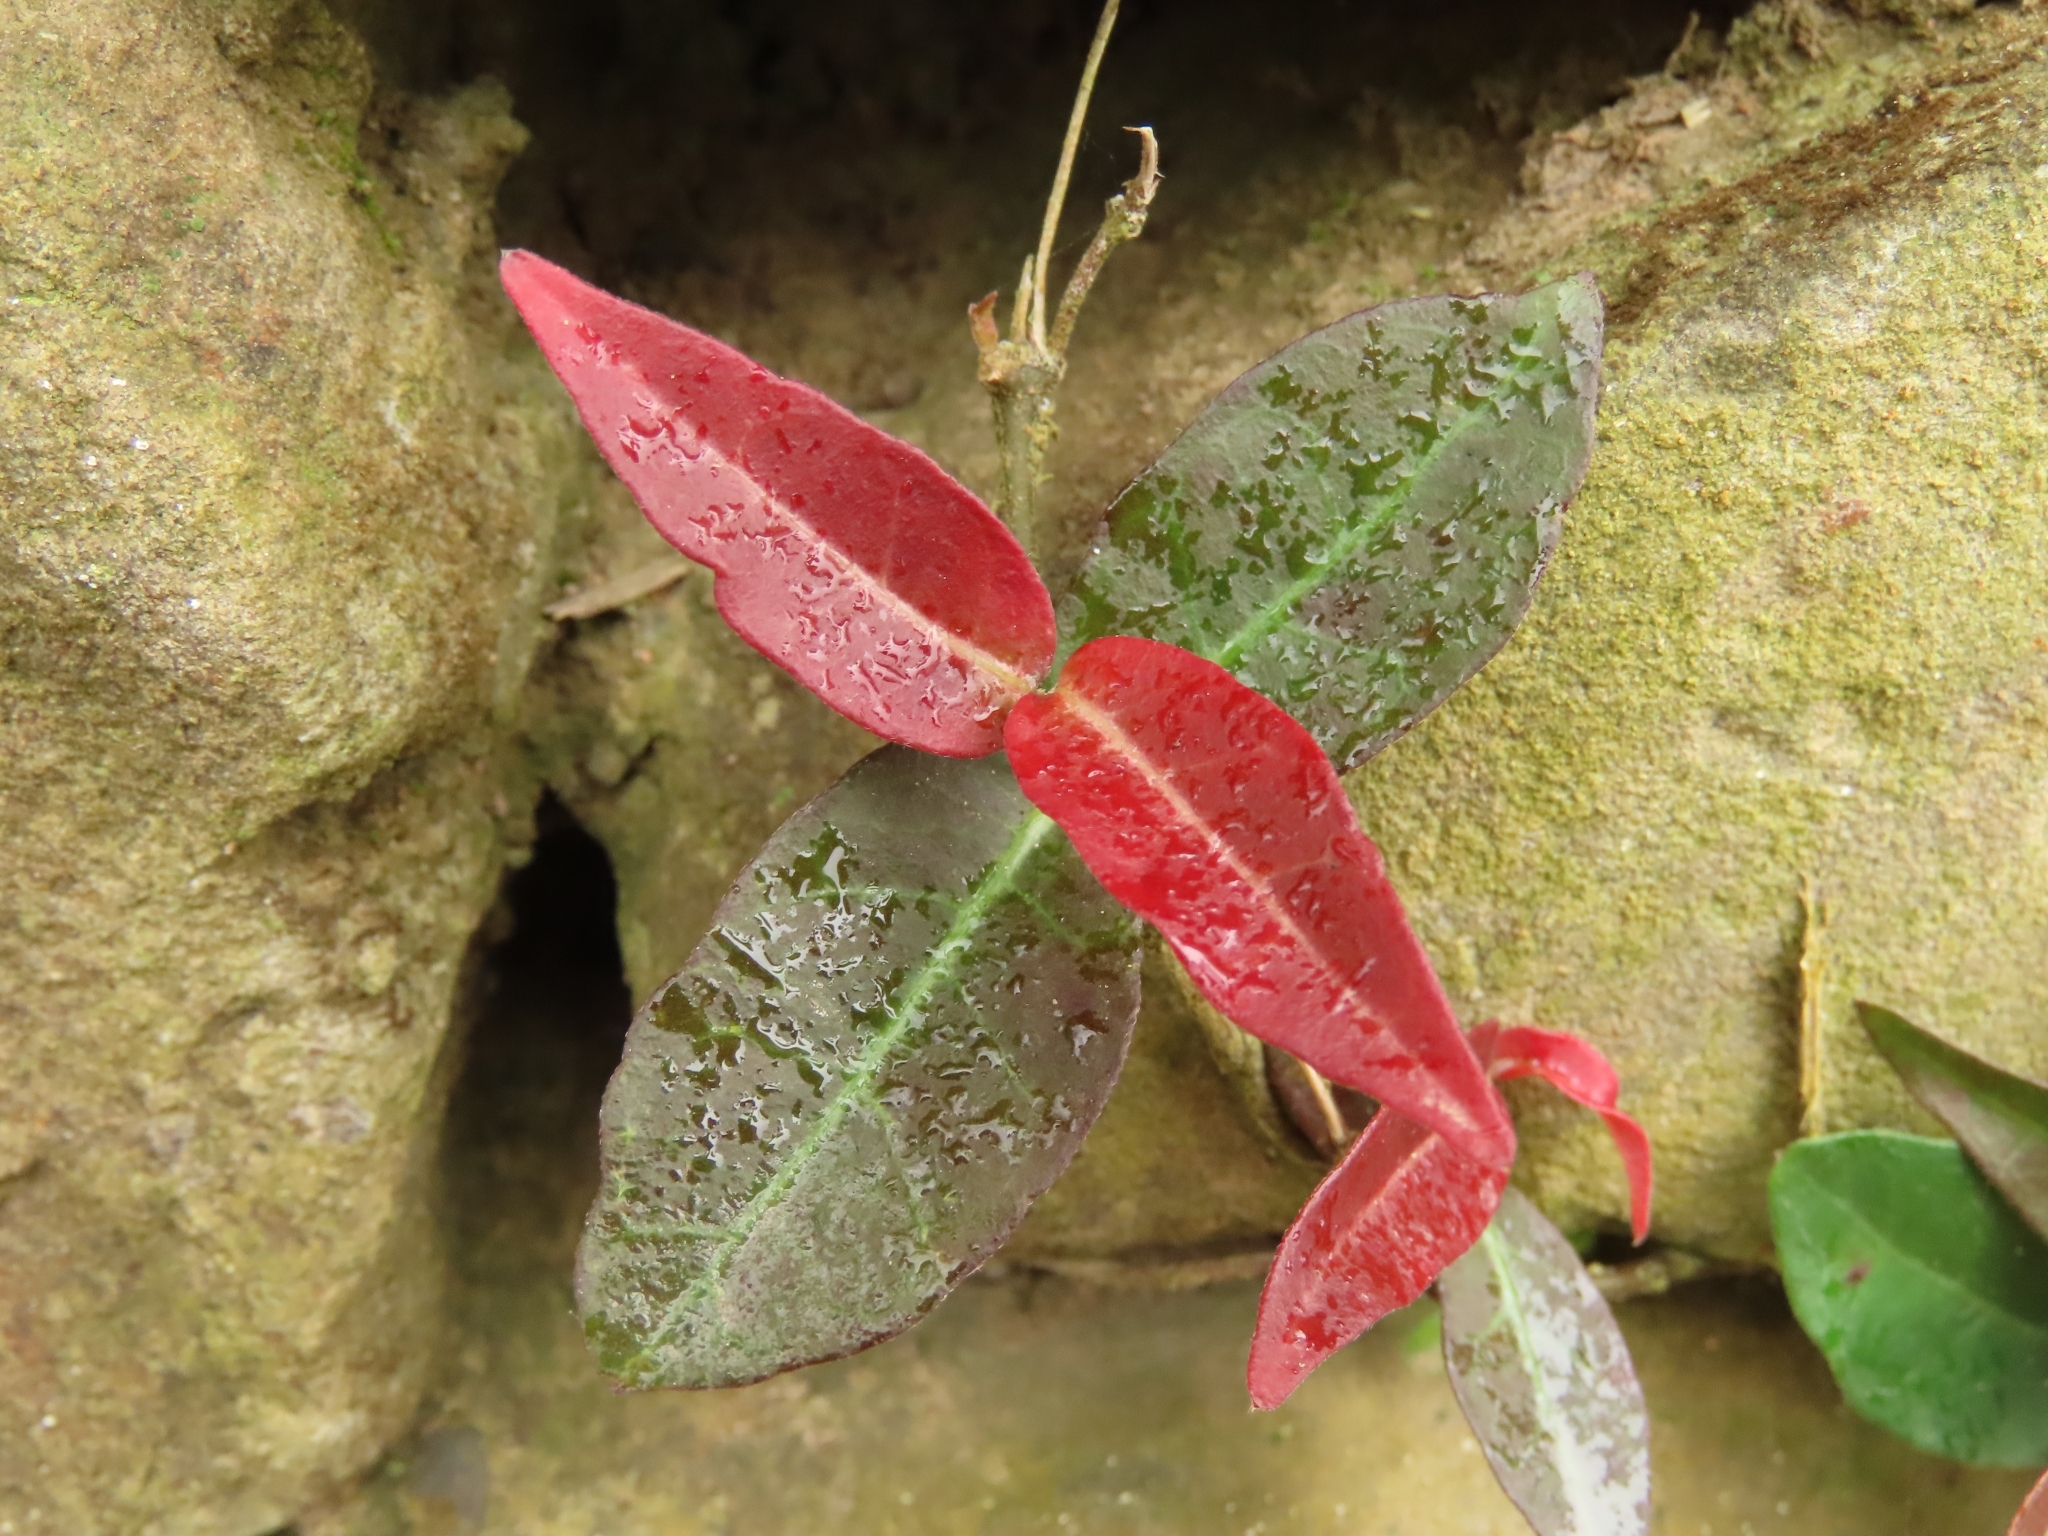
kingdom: Plantae
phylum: Tracheophyta
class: Magnoliopsida
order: Gentianales
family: Apocynaceae
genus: Trachelospermum
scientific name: Trachelospermum jasminoides
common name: Confederate jasmine
